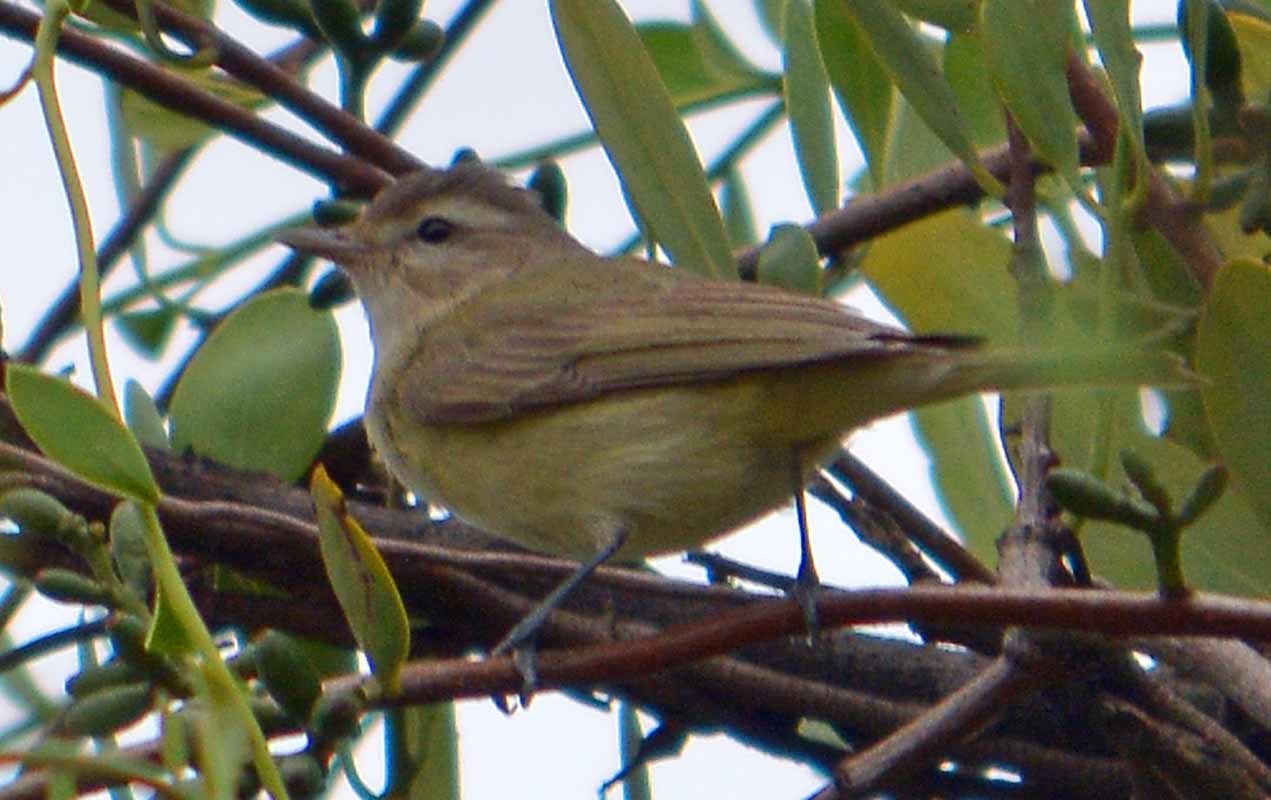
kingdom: Animalia
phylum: Chordata
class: Aves
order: Passeriformes
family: Vireonidae
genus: Vireo
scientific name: Vireo gilvus
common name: Warbling vireo
